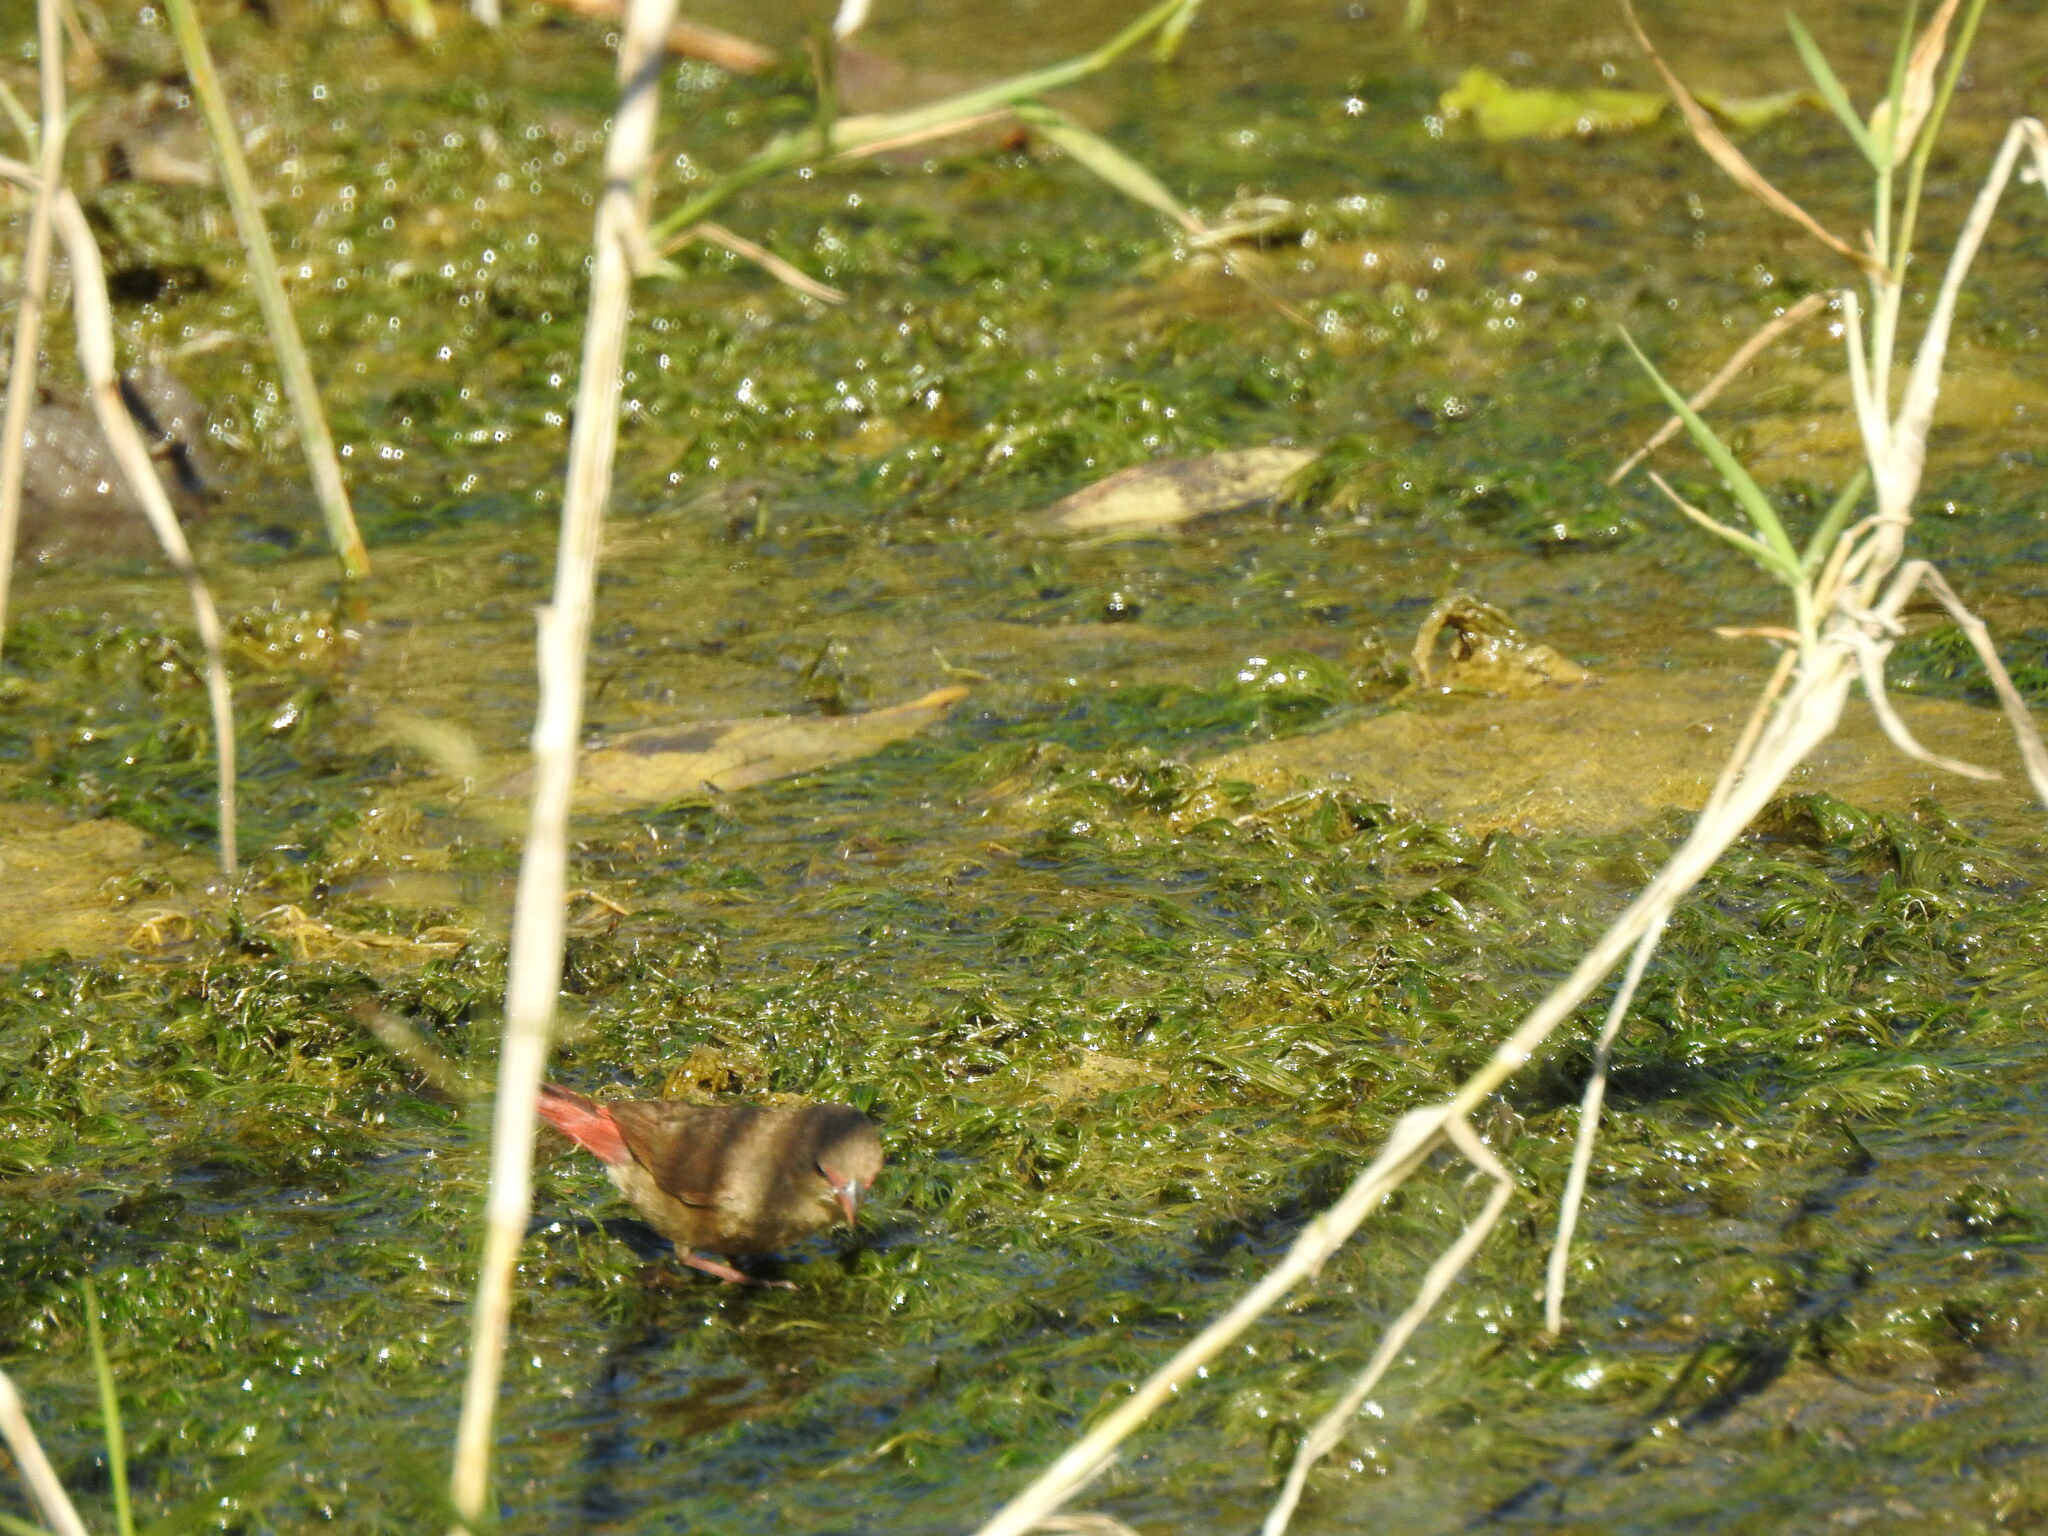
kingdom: Animalia
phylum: Chordata
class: Aves
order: Passeriformes
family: Estrildidae
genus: Lagonosticta
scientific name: Lagonosticta senegala
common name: Red-billed firefinch
